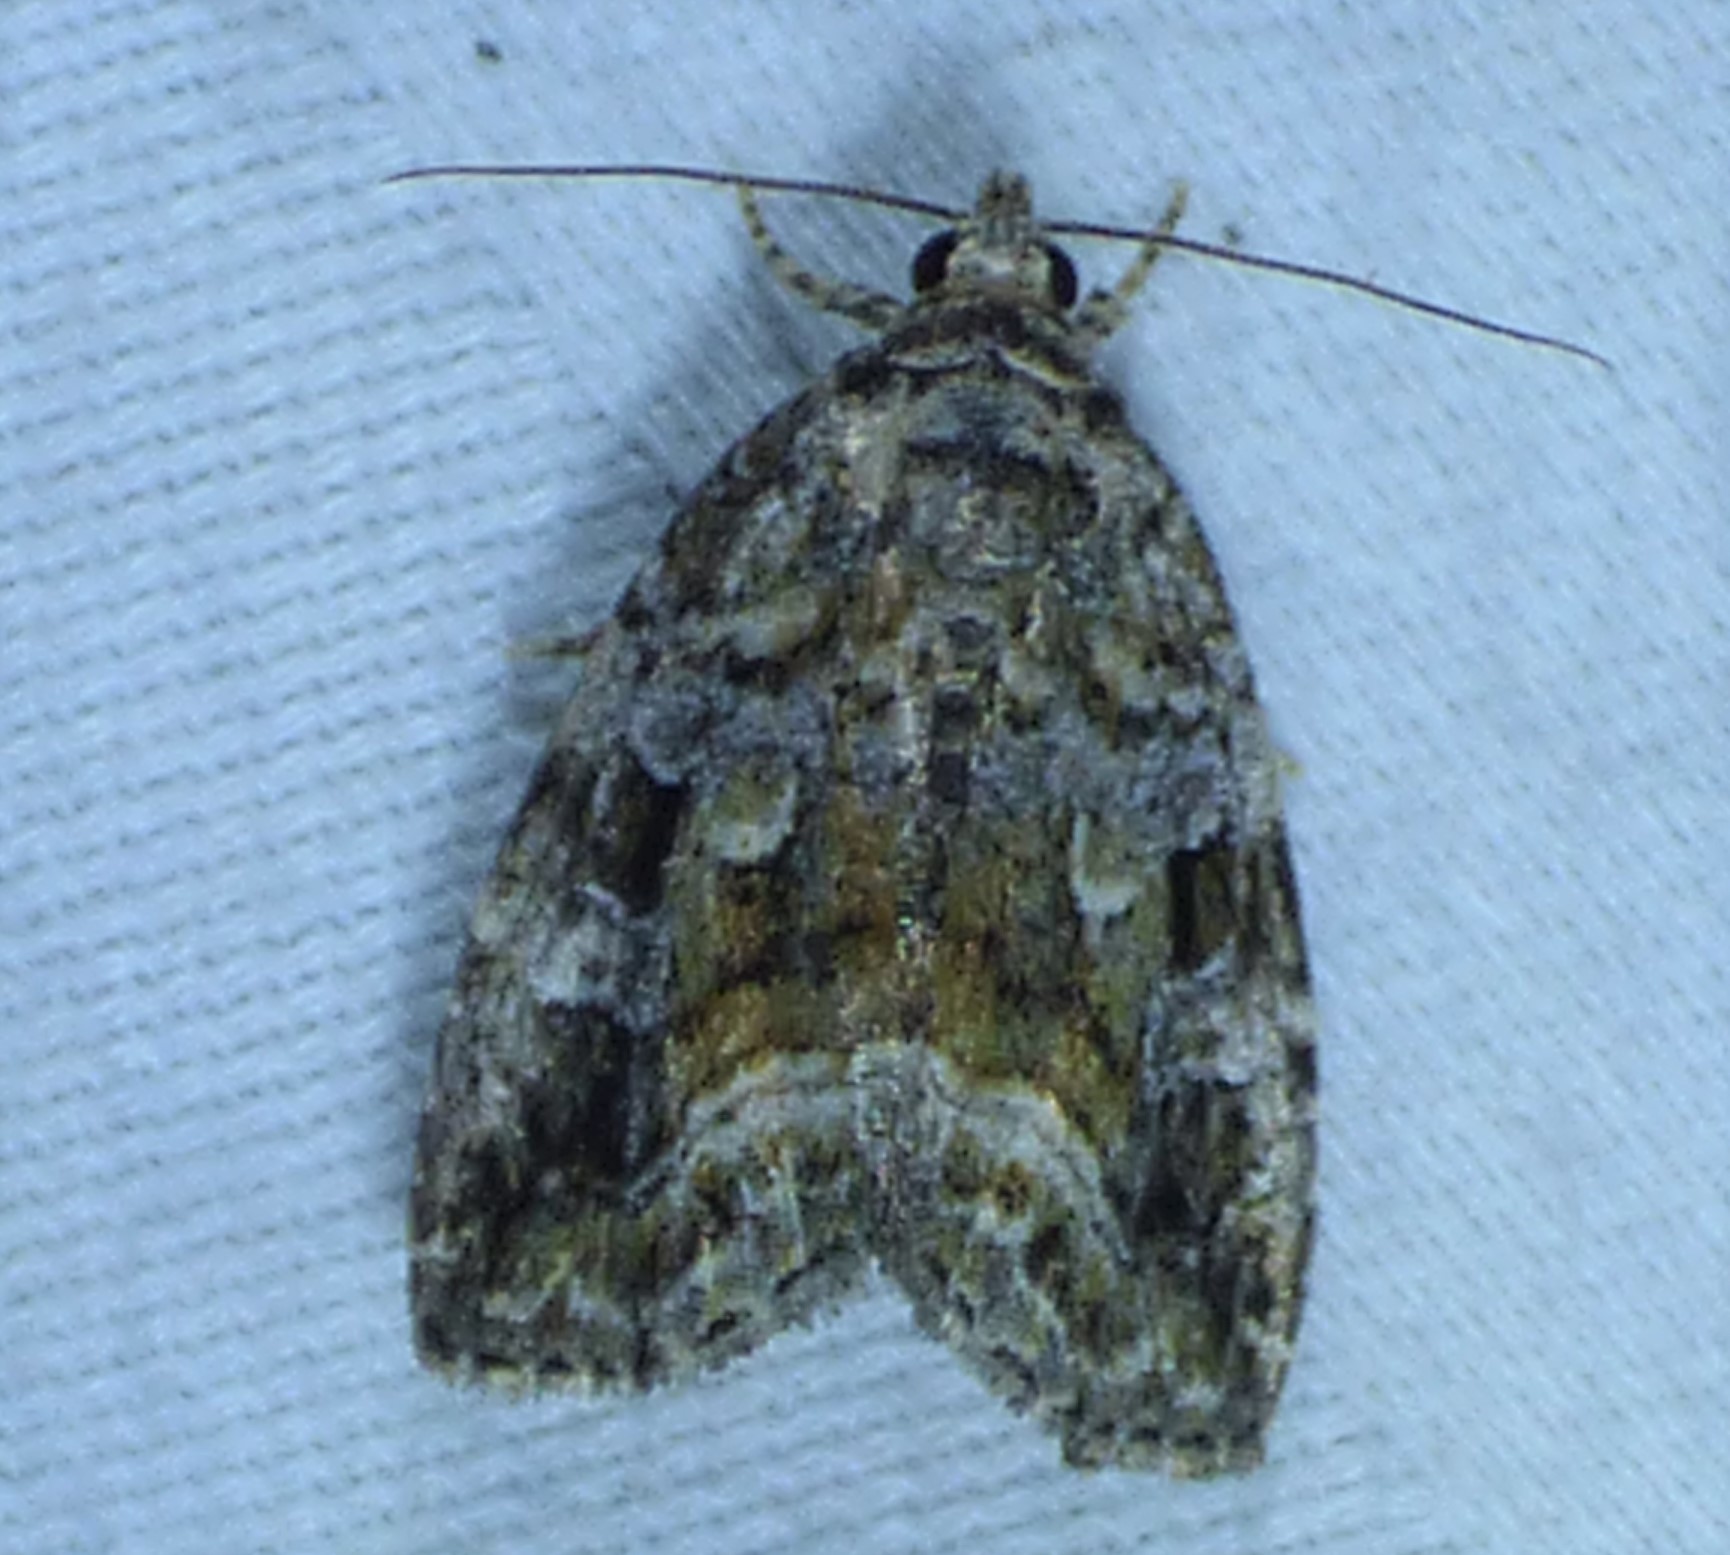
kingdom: Animalia
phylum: Arthropoda
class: Insecta
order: Lepidoptera
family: Noctuidae
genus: Protodeltote
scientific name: Protodeltote muscosula
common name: Large mossy glyph
